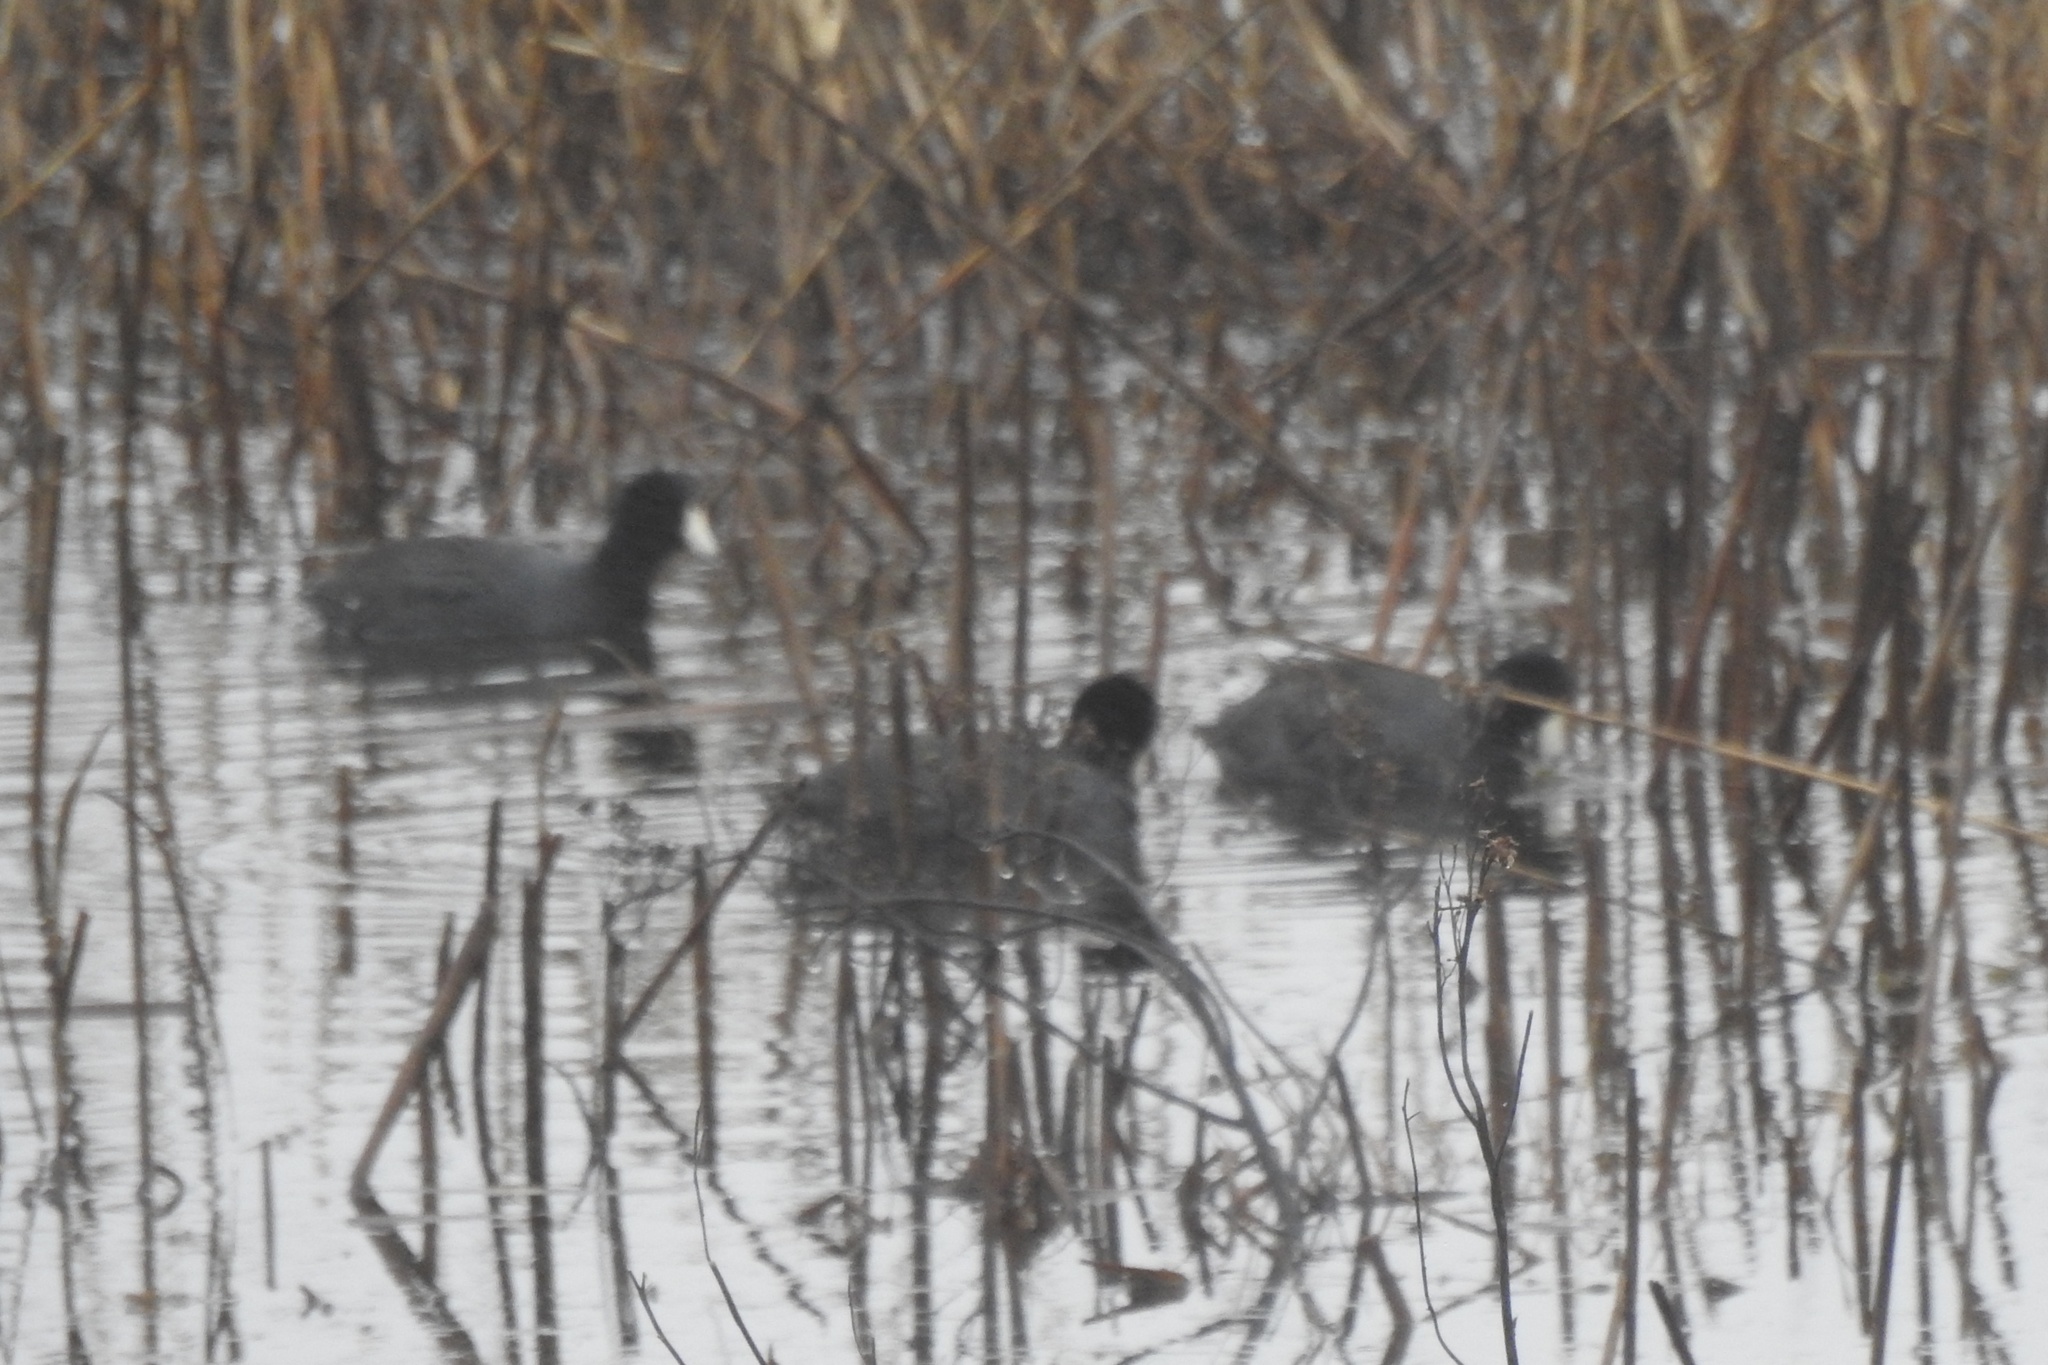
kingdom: Animalia
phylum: Chordata
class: Aves
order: Gruiformes
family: Rallidae
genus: Fulica
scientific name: Fulica americana
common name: American coot
